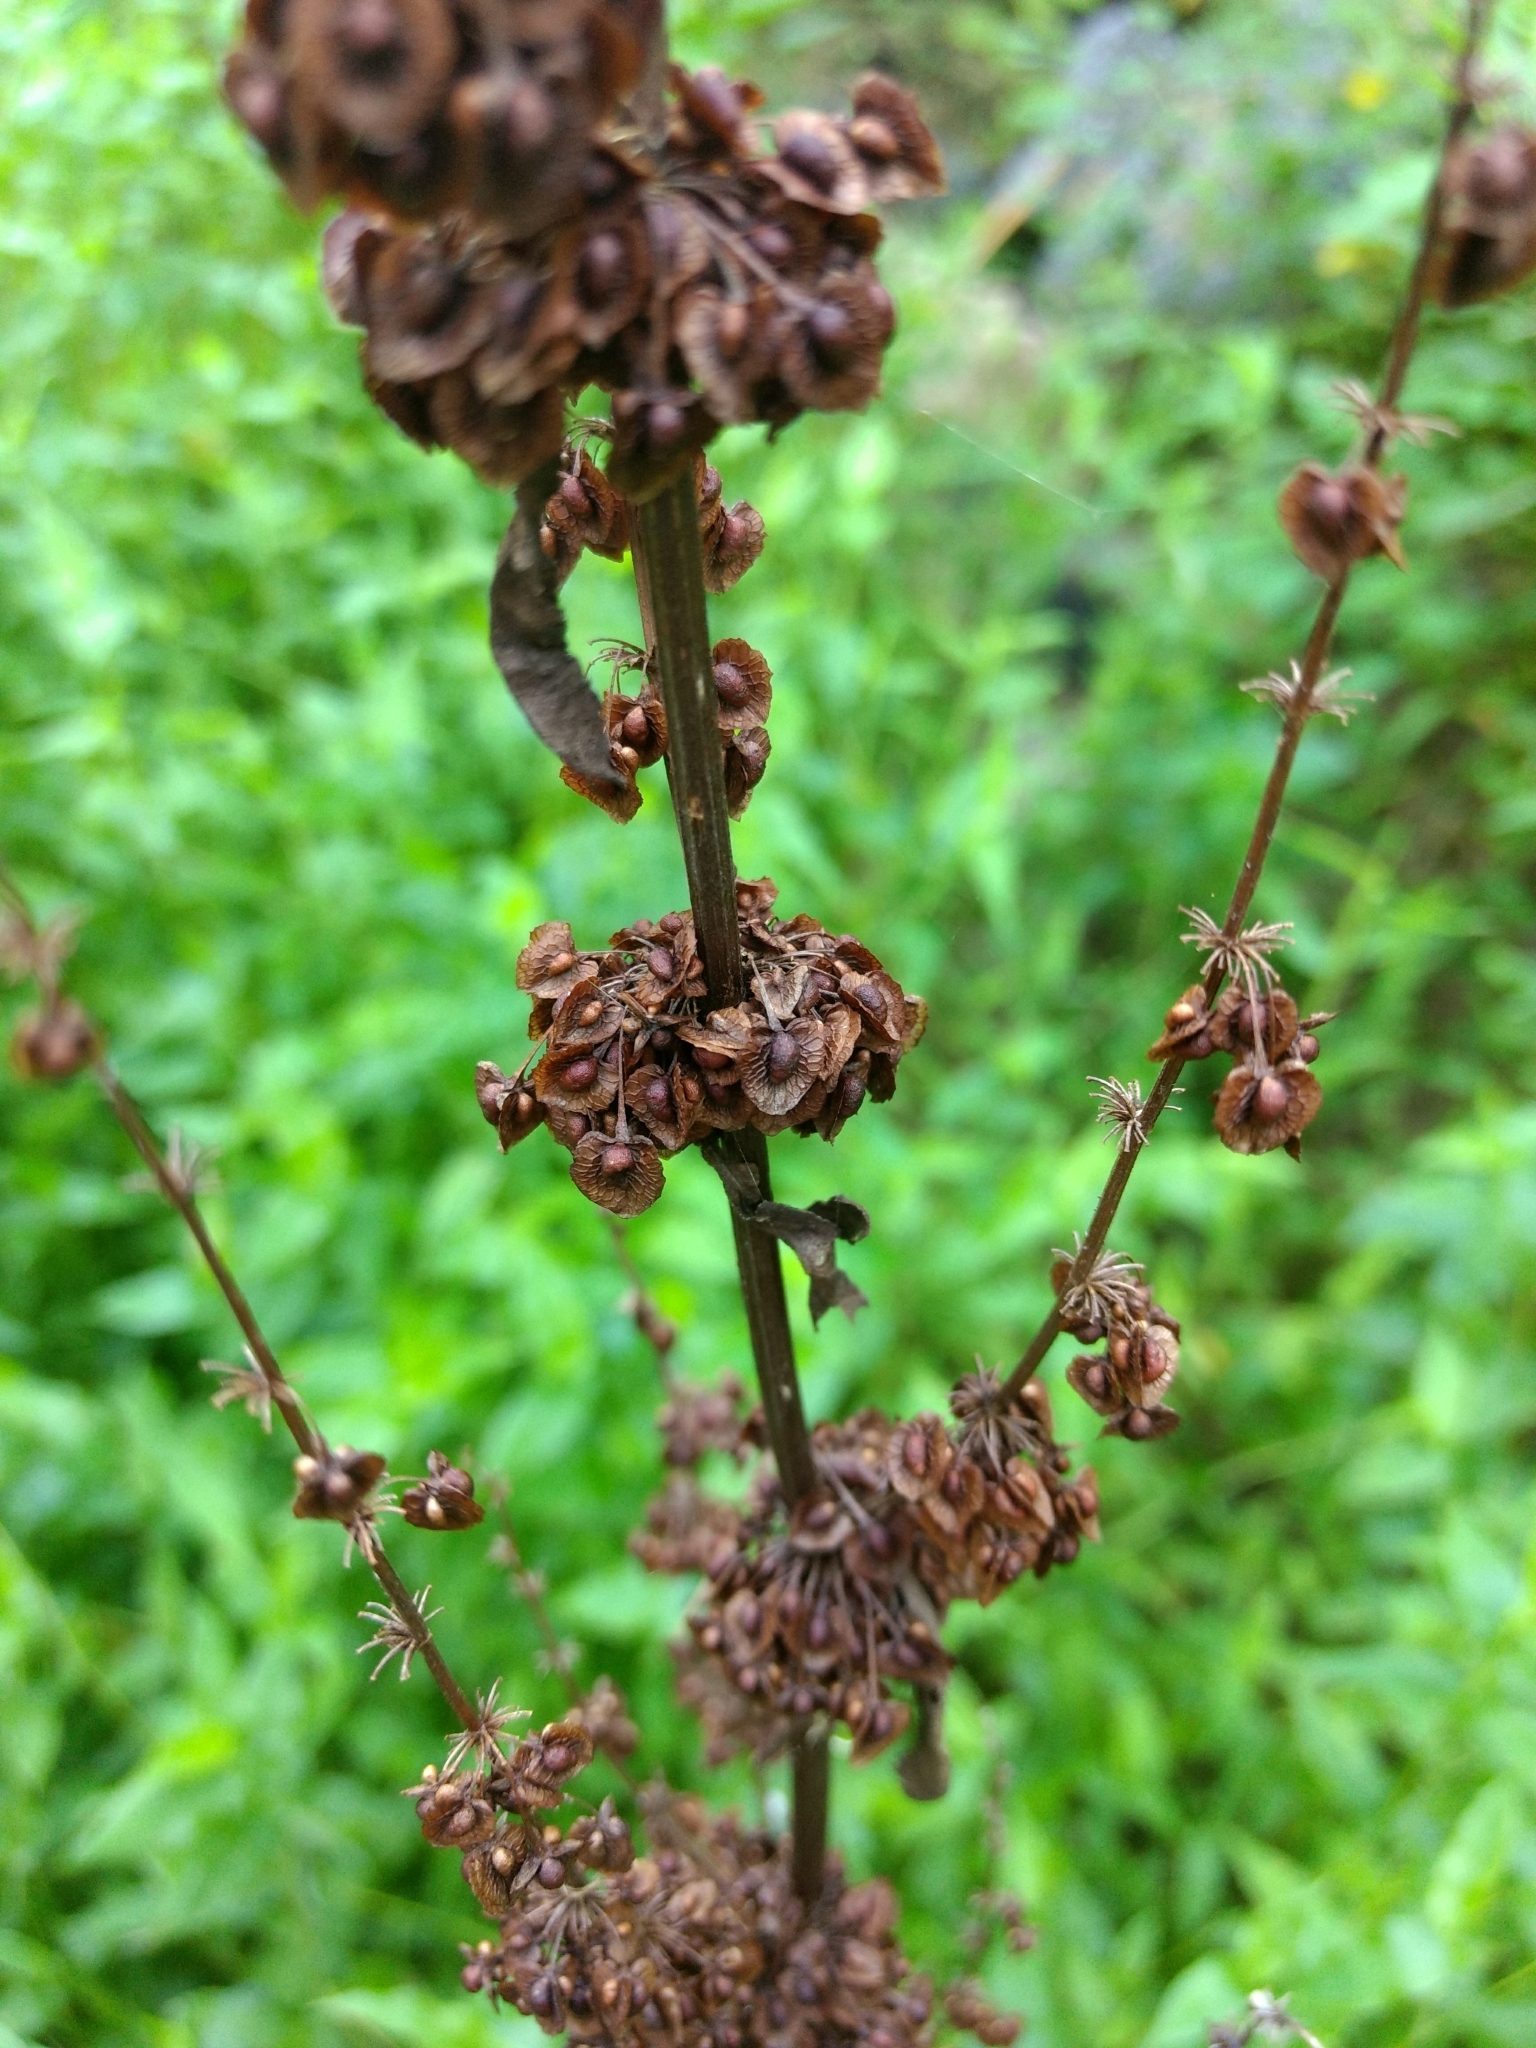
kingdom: Plantae
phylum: Tracheophyta
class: Magnoliopsida
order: Caryophyllales
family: Polygonaceae
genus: Rumex
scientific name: Rumex crispus
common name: Curled dock
